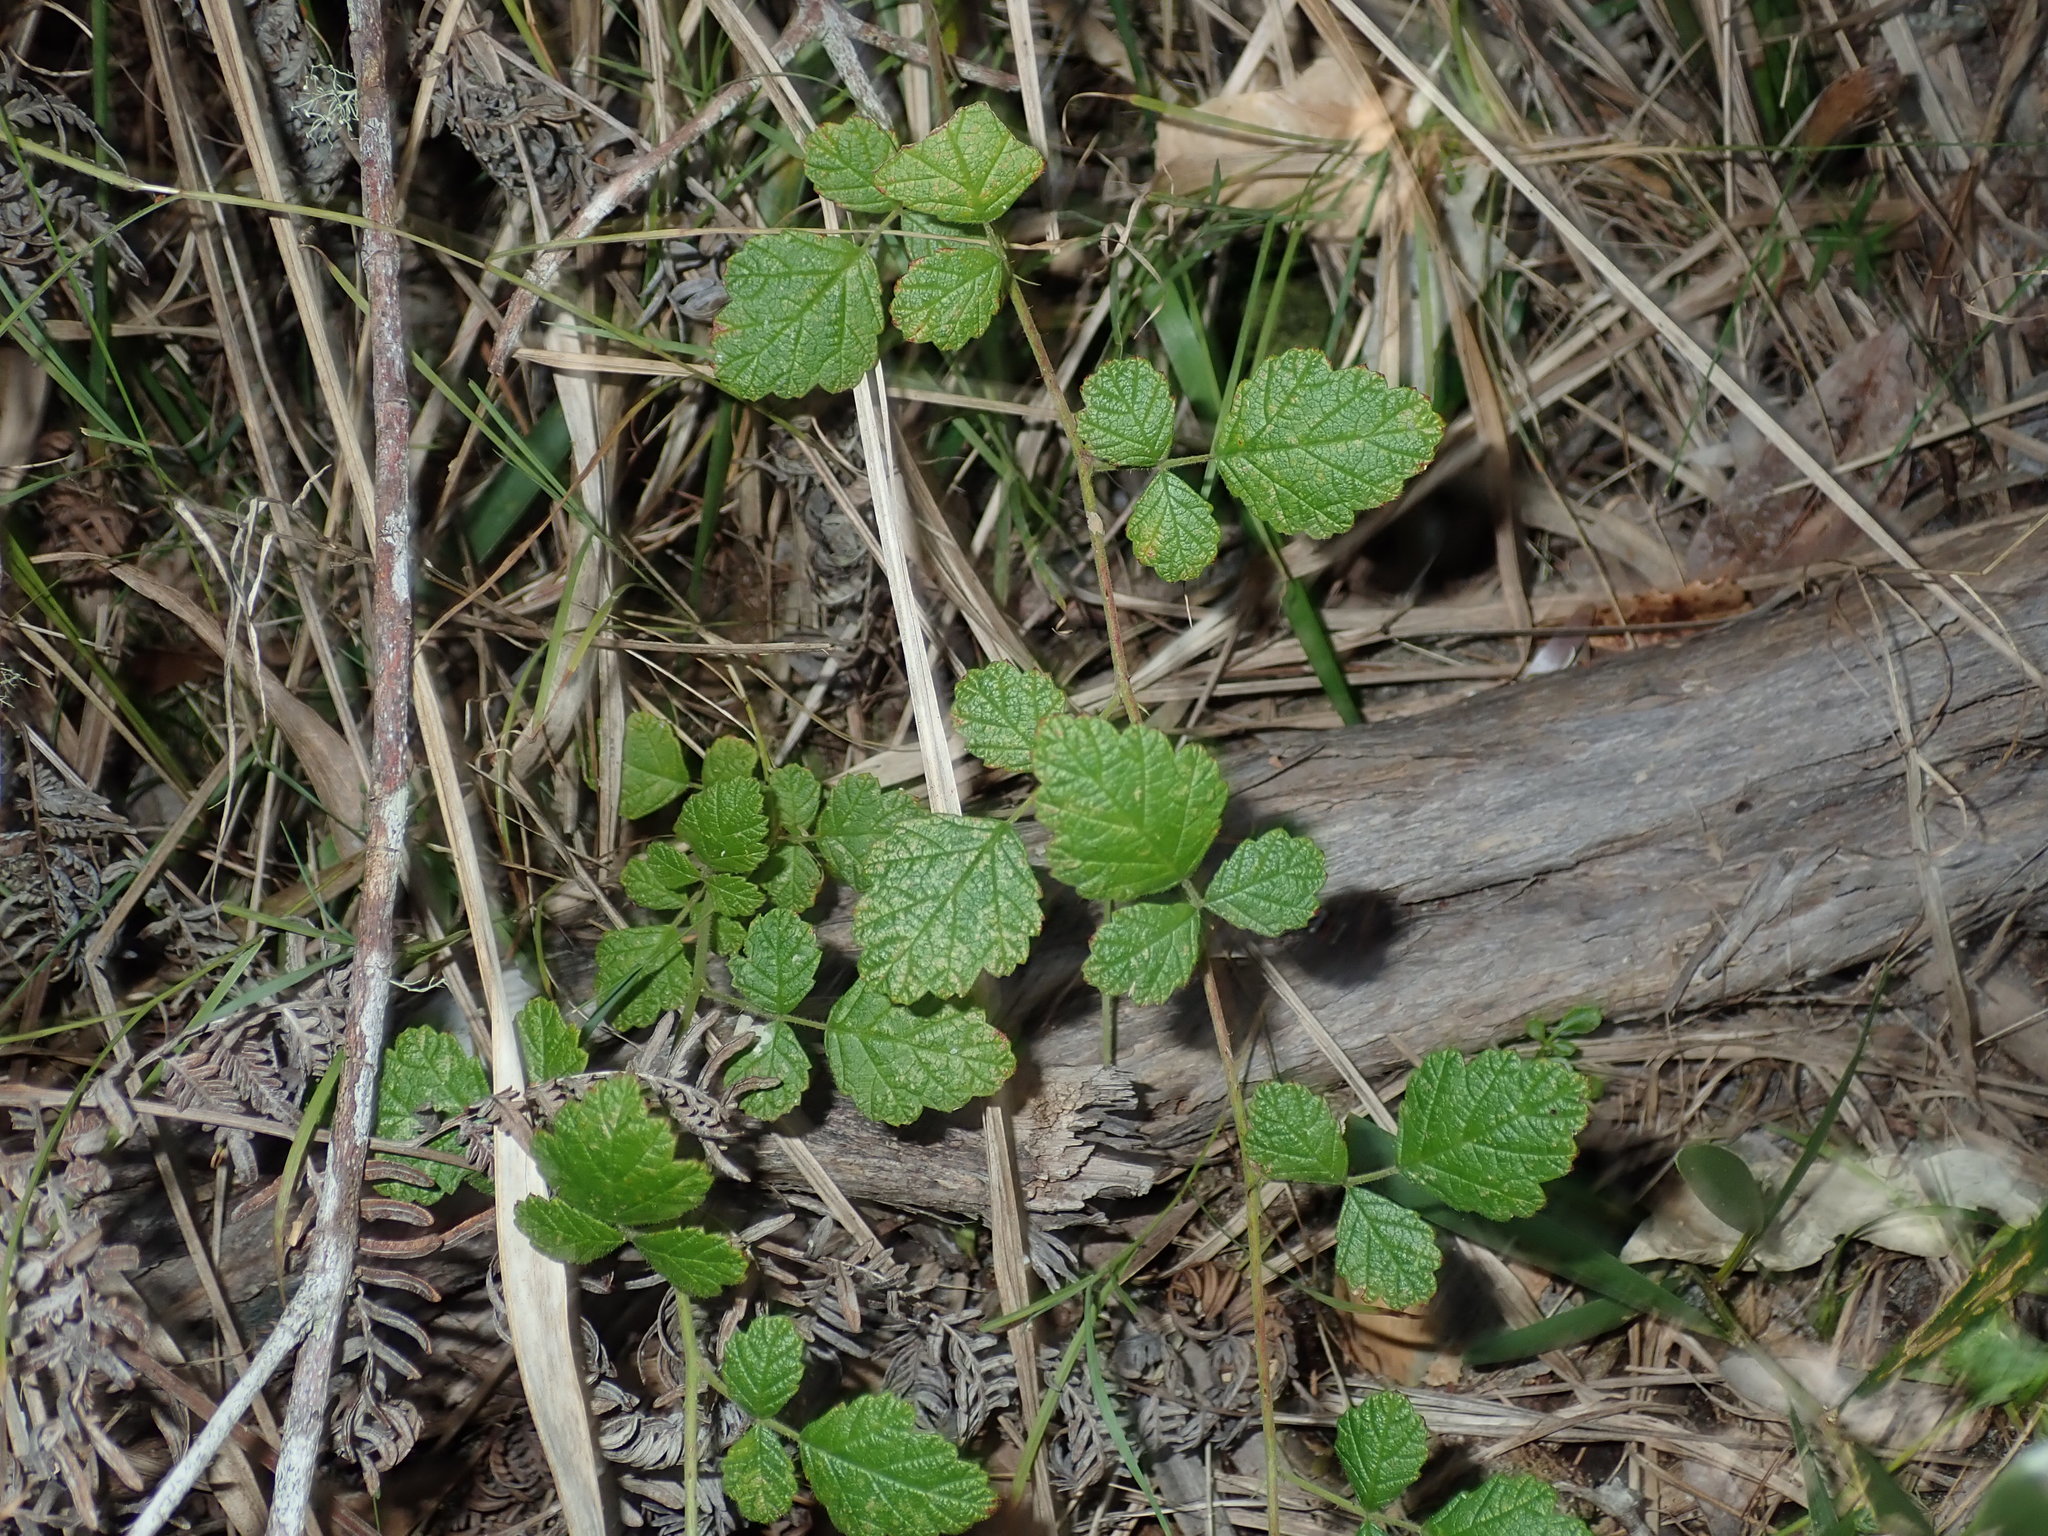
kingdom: Plantae
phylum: Tracheophyta
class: Magnoliopsida
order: Rosales
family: Rosaceae
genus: Rubus
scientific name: Rubus parvifolius
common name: Threeleaf blackberry
